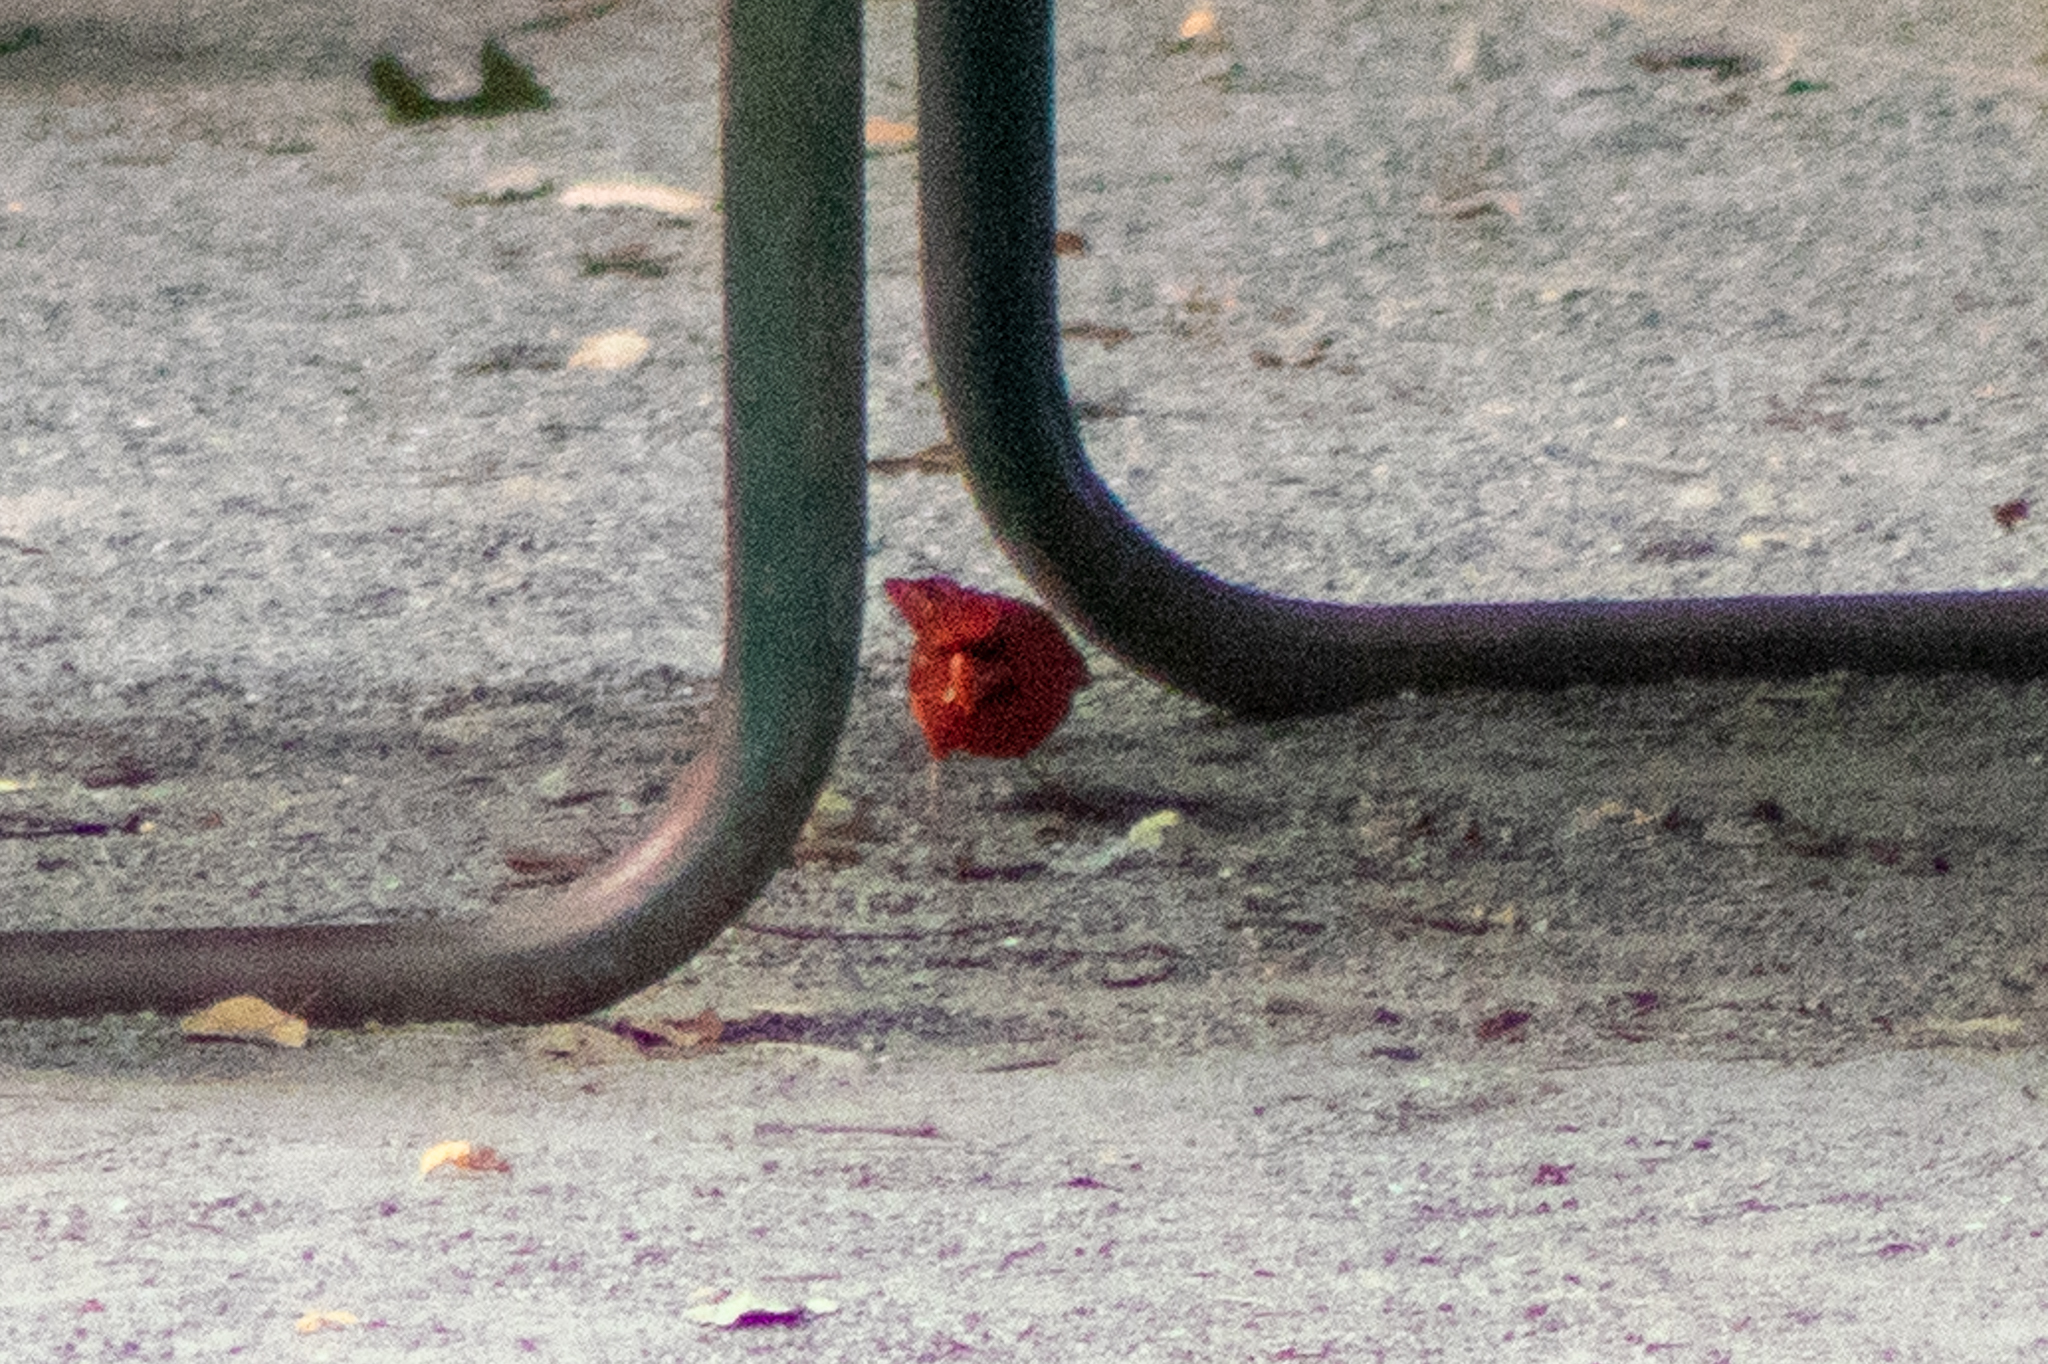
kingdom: Animalia
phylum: Chordata
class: Aves
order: Passeriformes
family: Cardinalidae
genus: Cardinalis
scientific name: Cardinalis cardinalis
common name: Northern cardinal
